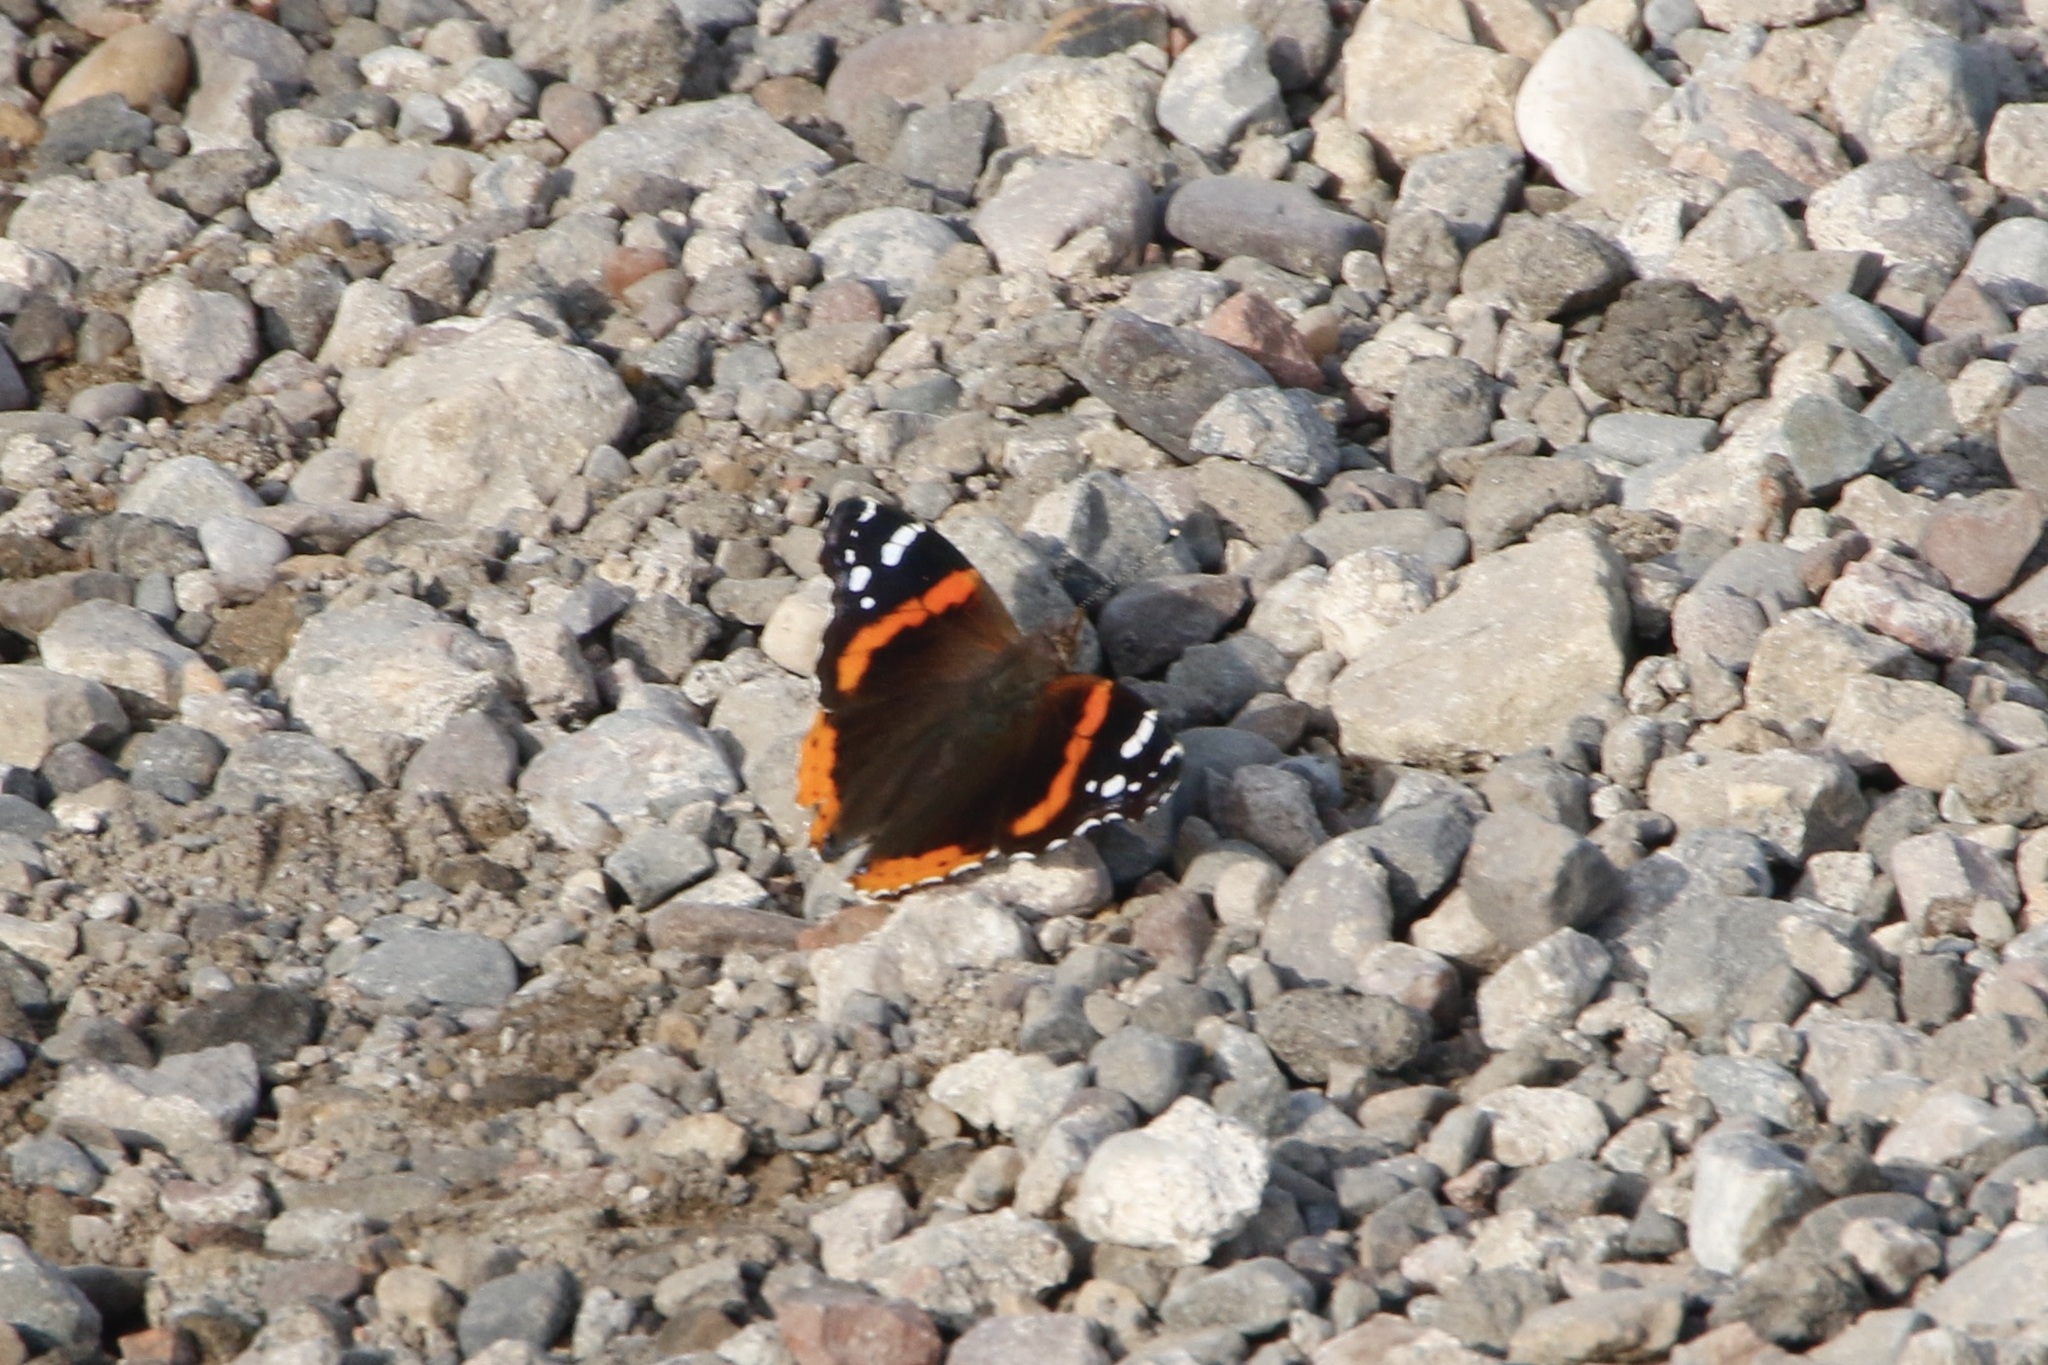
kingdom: Animalia
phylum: Arthropoda
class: Insecta
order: Lepidoptera
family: Nymphalidae
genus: Vanessa
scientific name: Vanessa atalanta
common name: Red admiral
